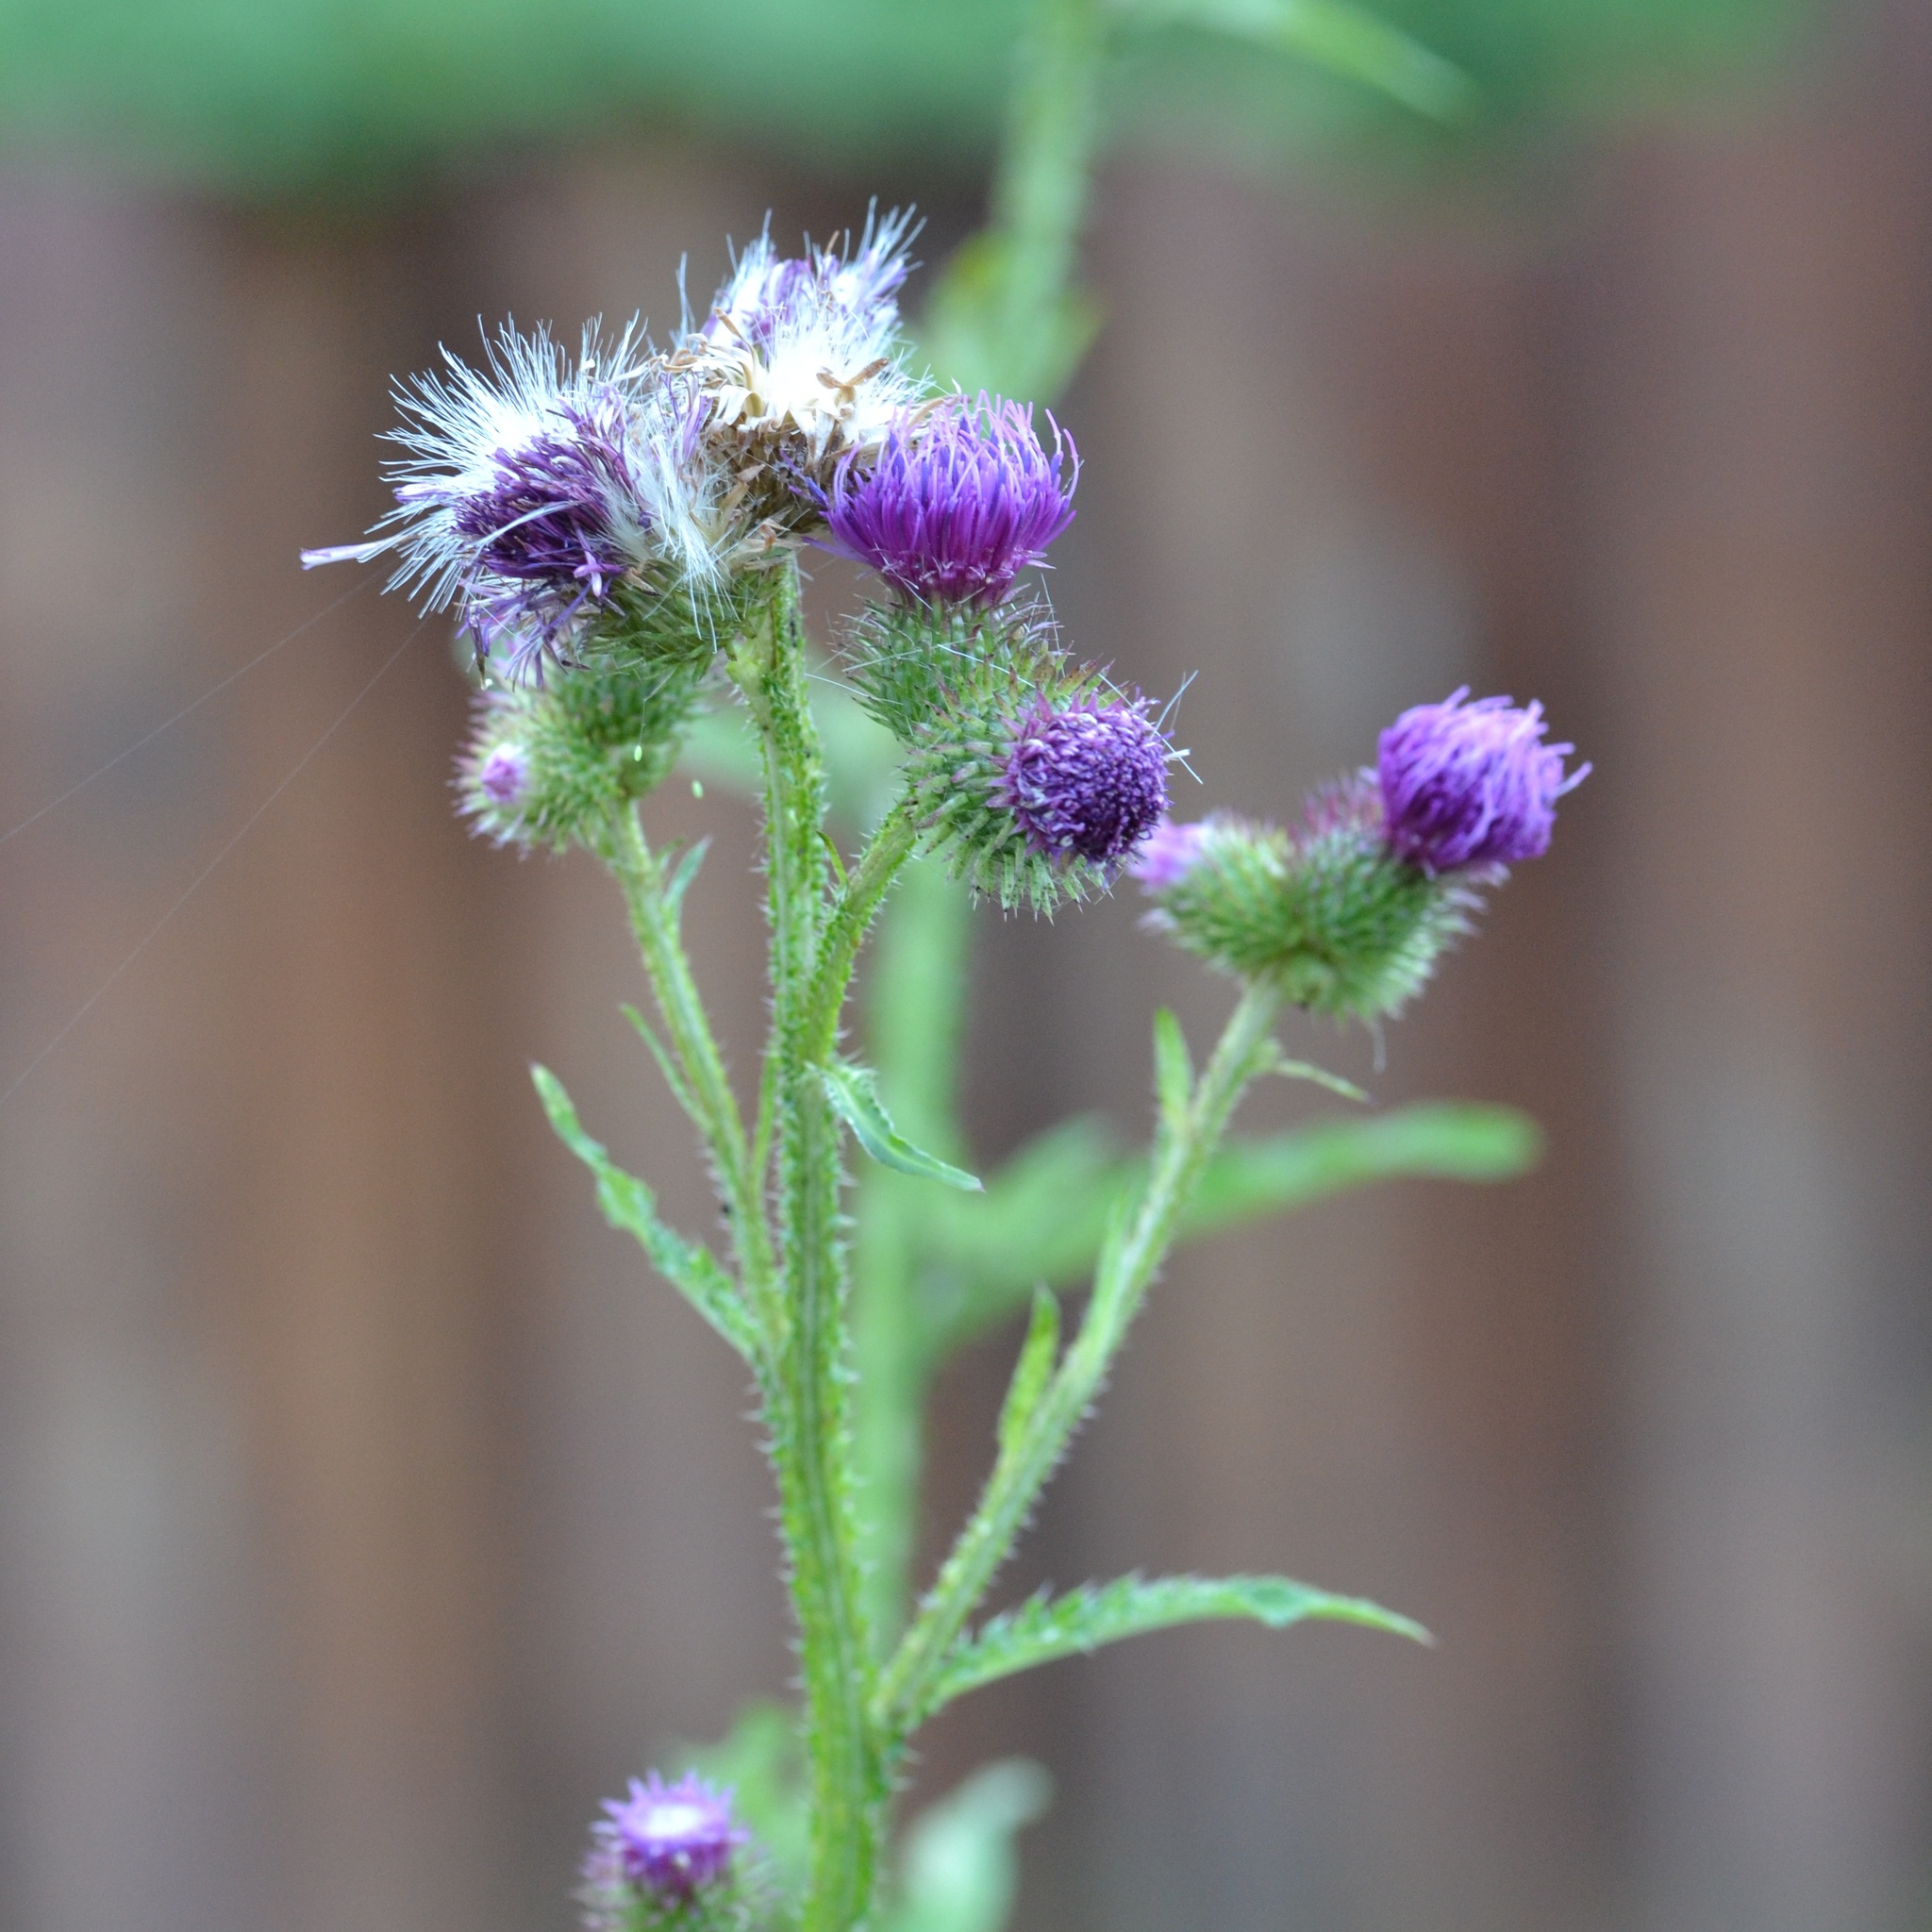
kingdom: Plantae
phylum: Tracheophyta
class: Magnoliopsida
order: Asterales
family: Asteraceae
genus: Carduus
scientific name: Carduus crispus
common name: Welted thistle
